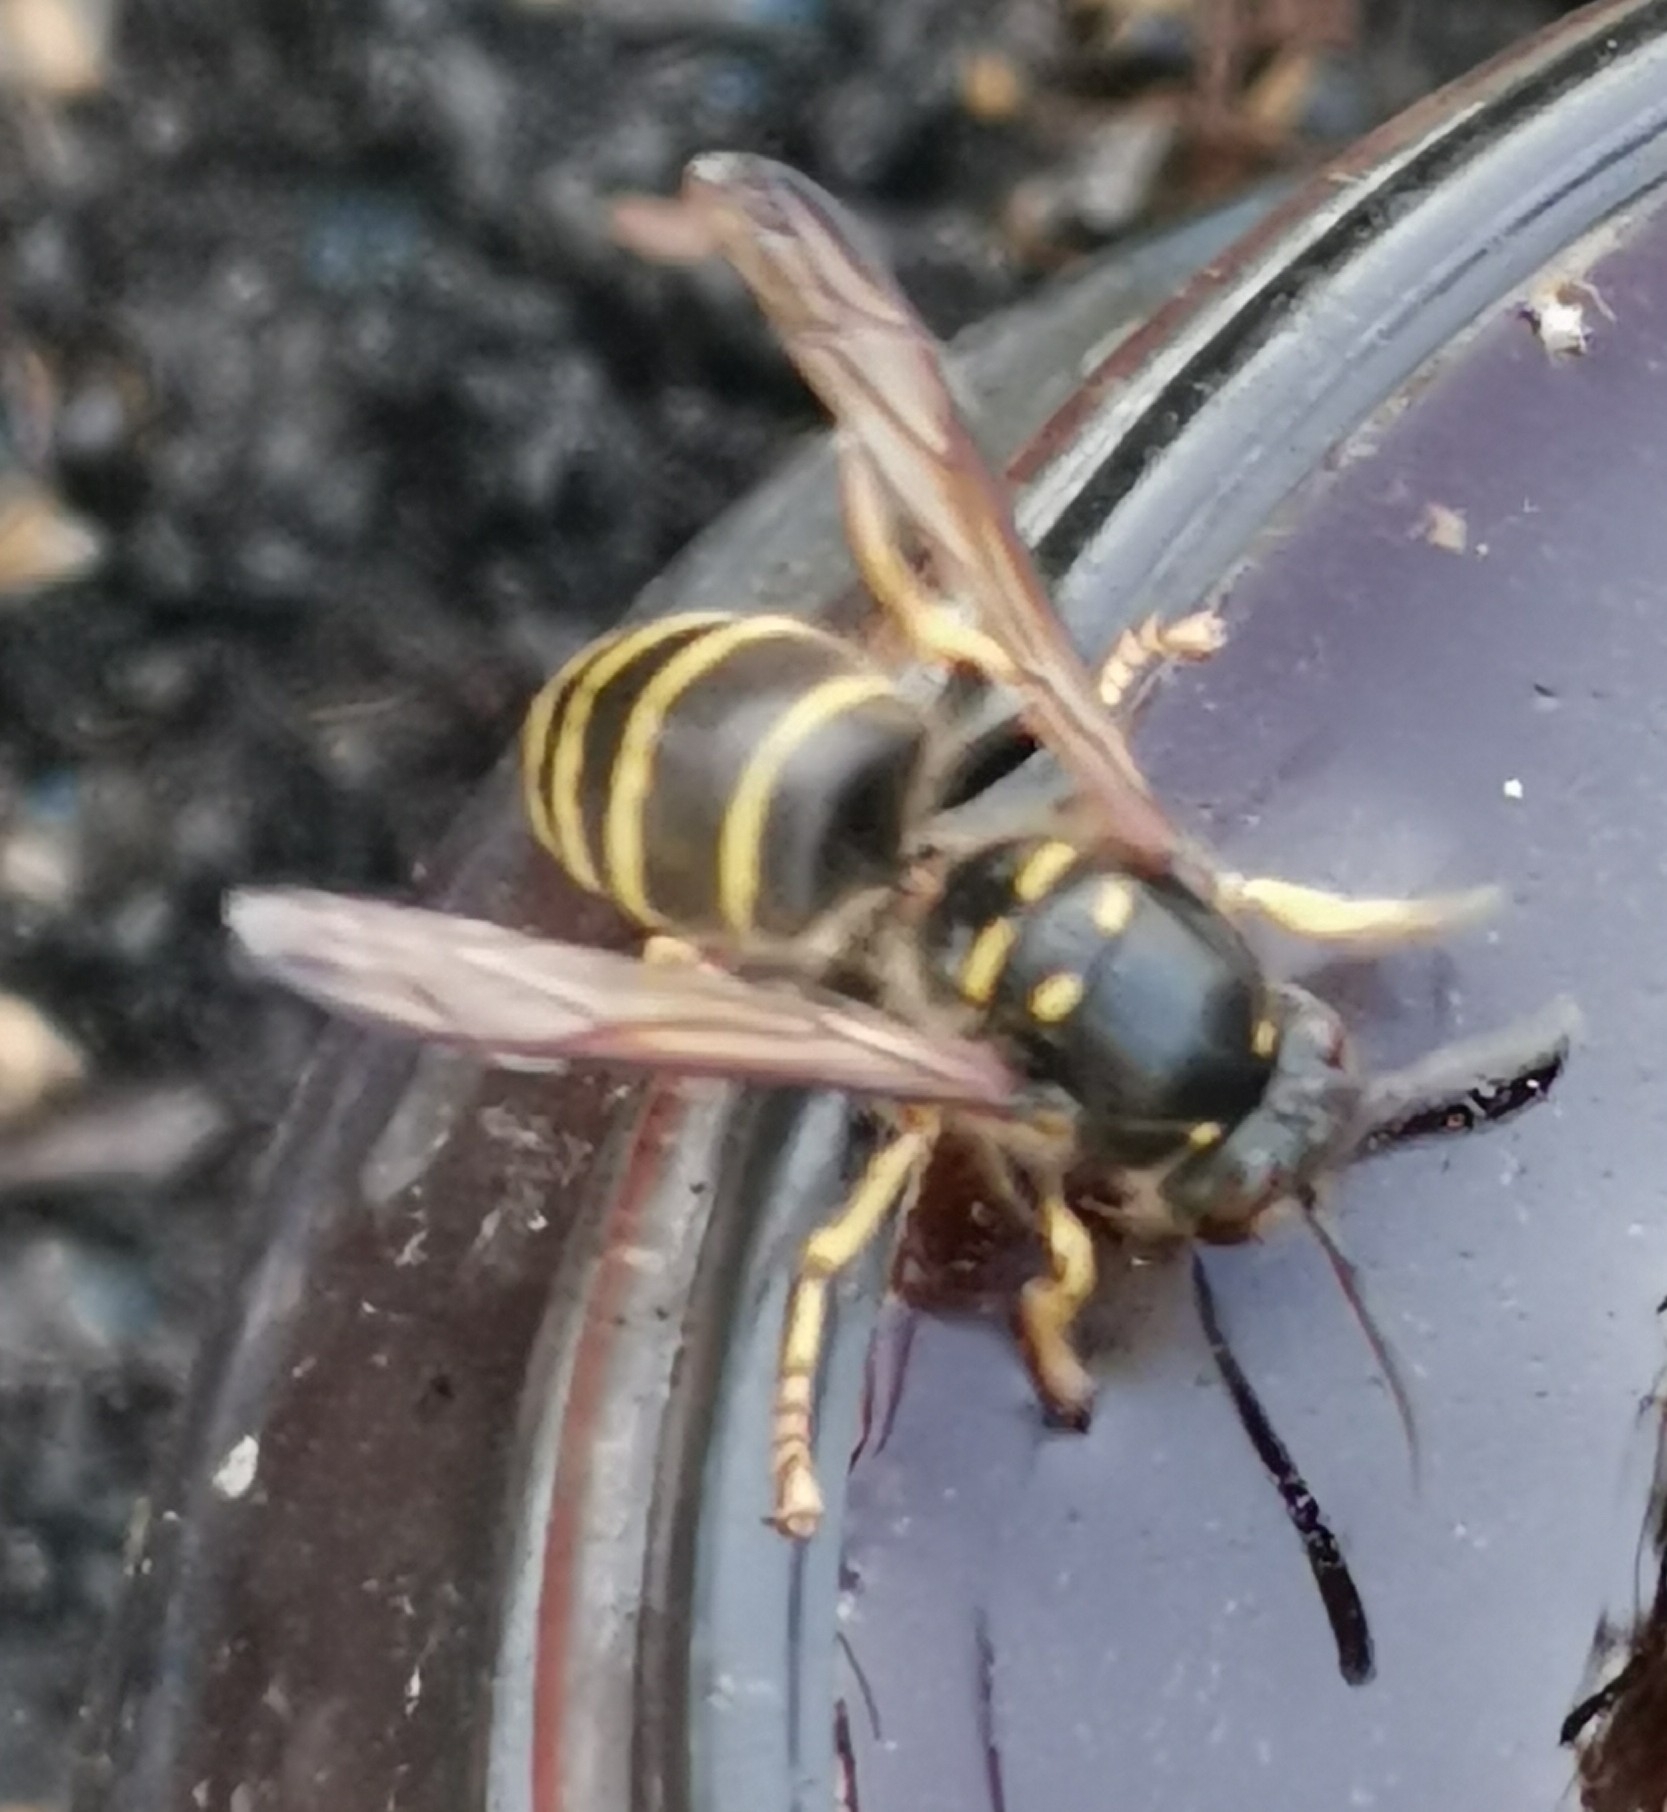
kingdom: Animalia
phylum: Arthropoda
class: Insecta
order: Hymenoptera
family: Vespidae
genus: Dolichovespula
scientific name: Dolichovespula media
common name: Median wasp
